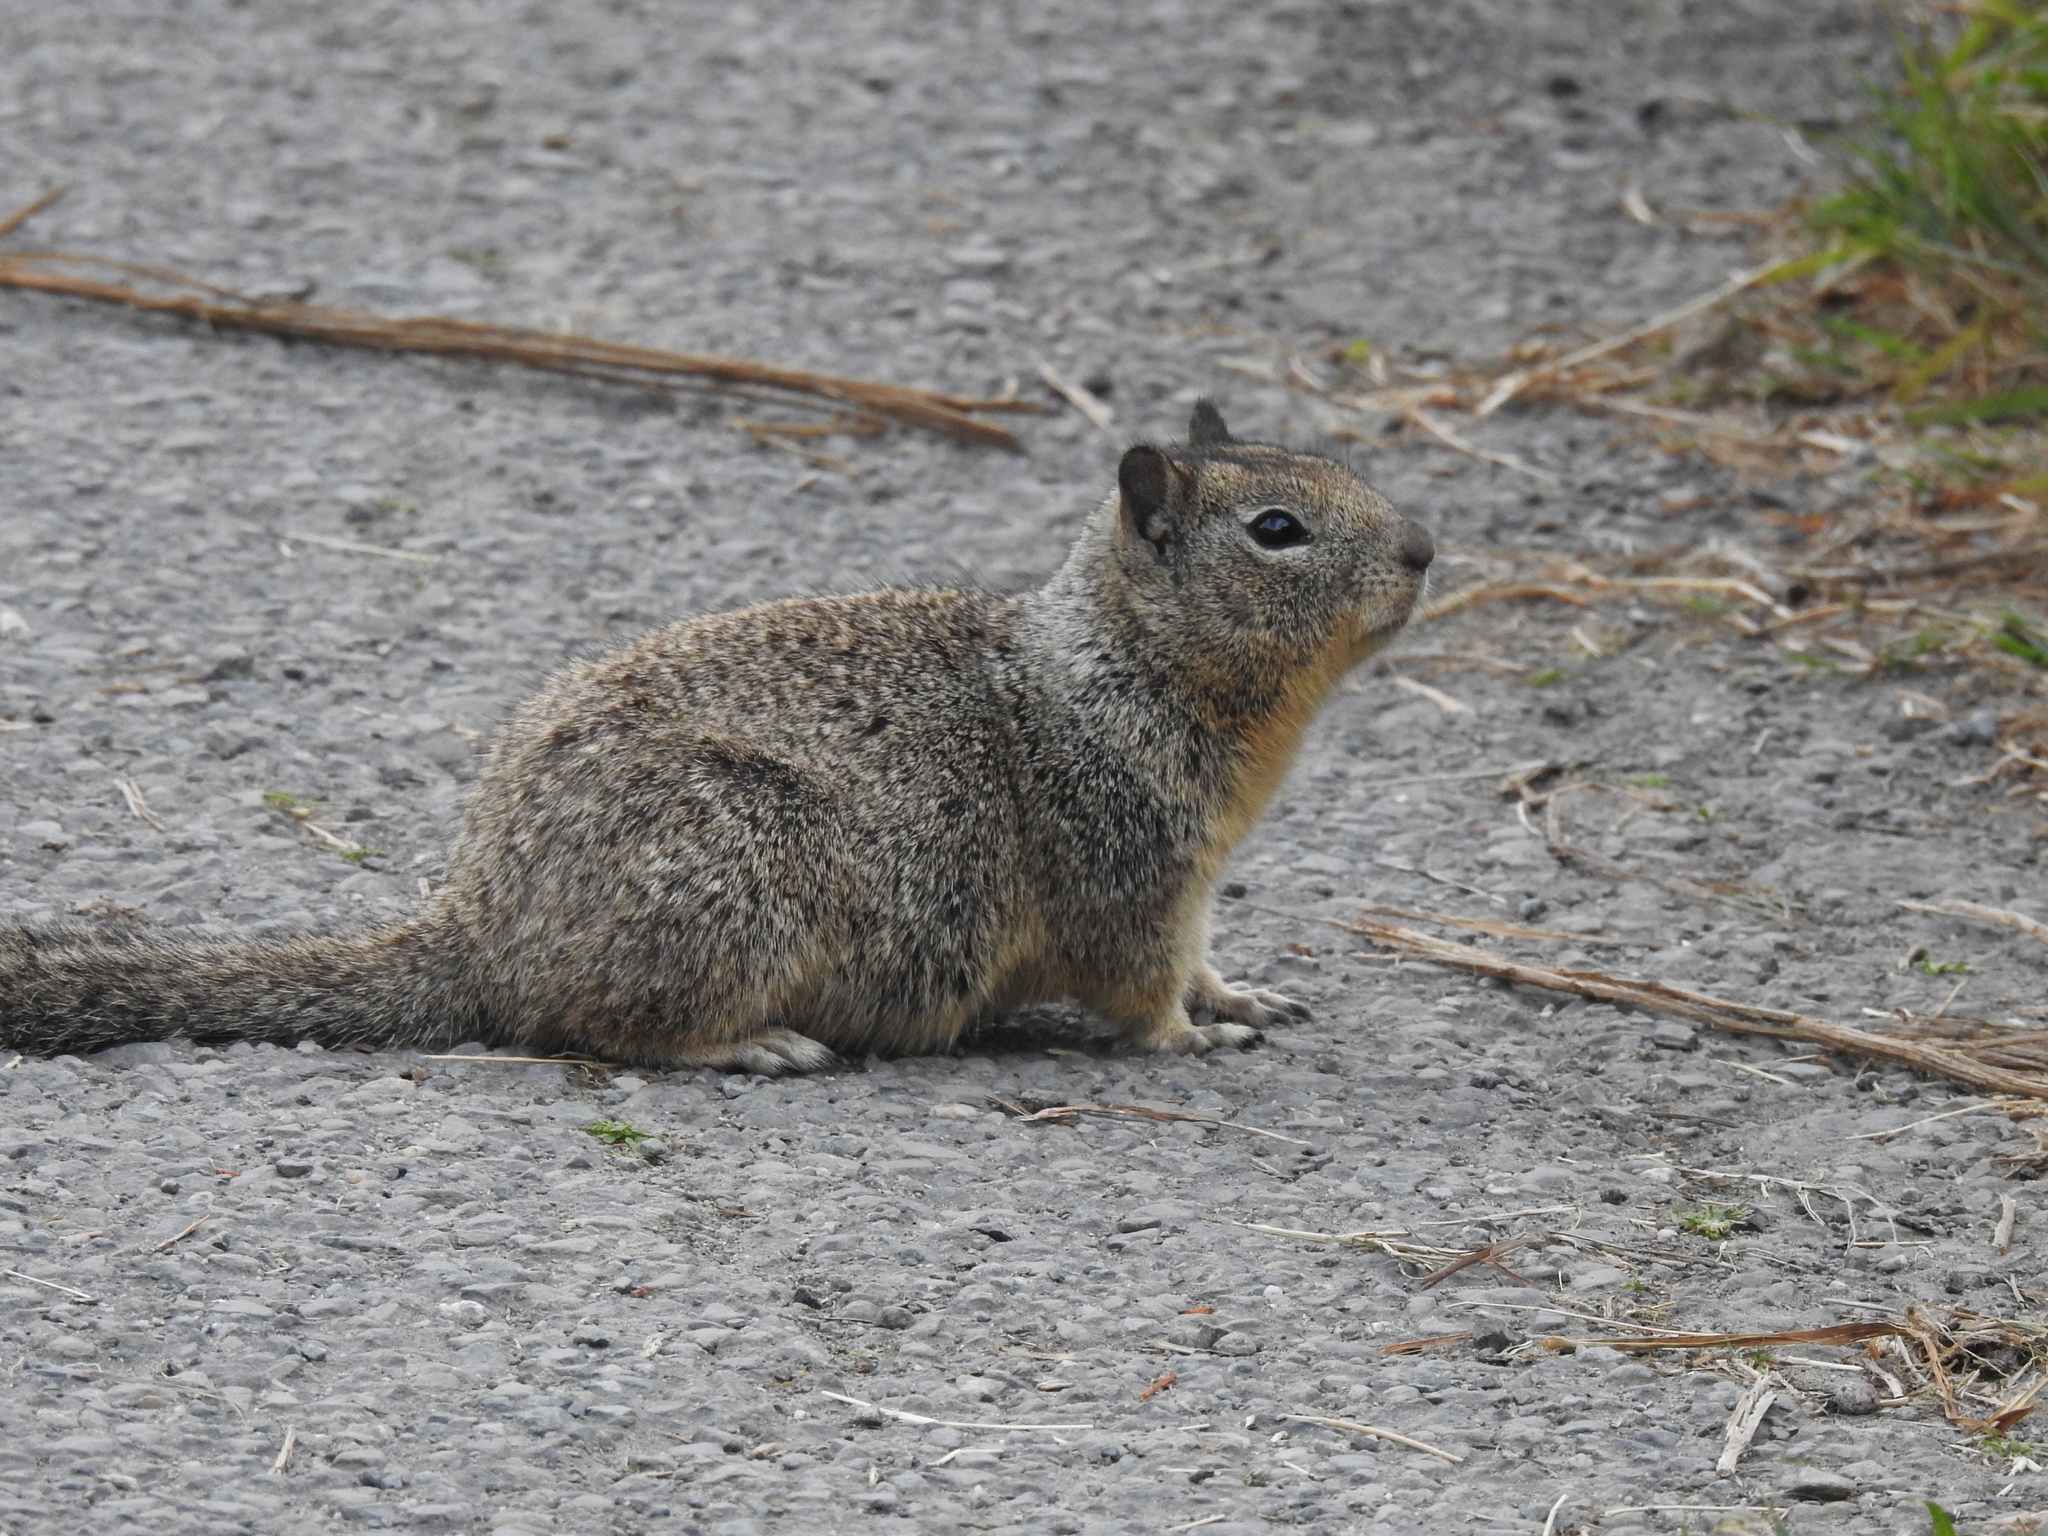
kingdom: Animalia
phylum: Chordata
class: Mammalia
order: Rodentia
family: Sciuridae
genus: Otospermophilus
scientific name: Otospermophilus beecheyi
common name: California ground squirrel
